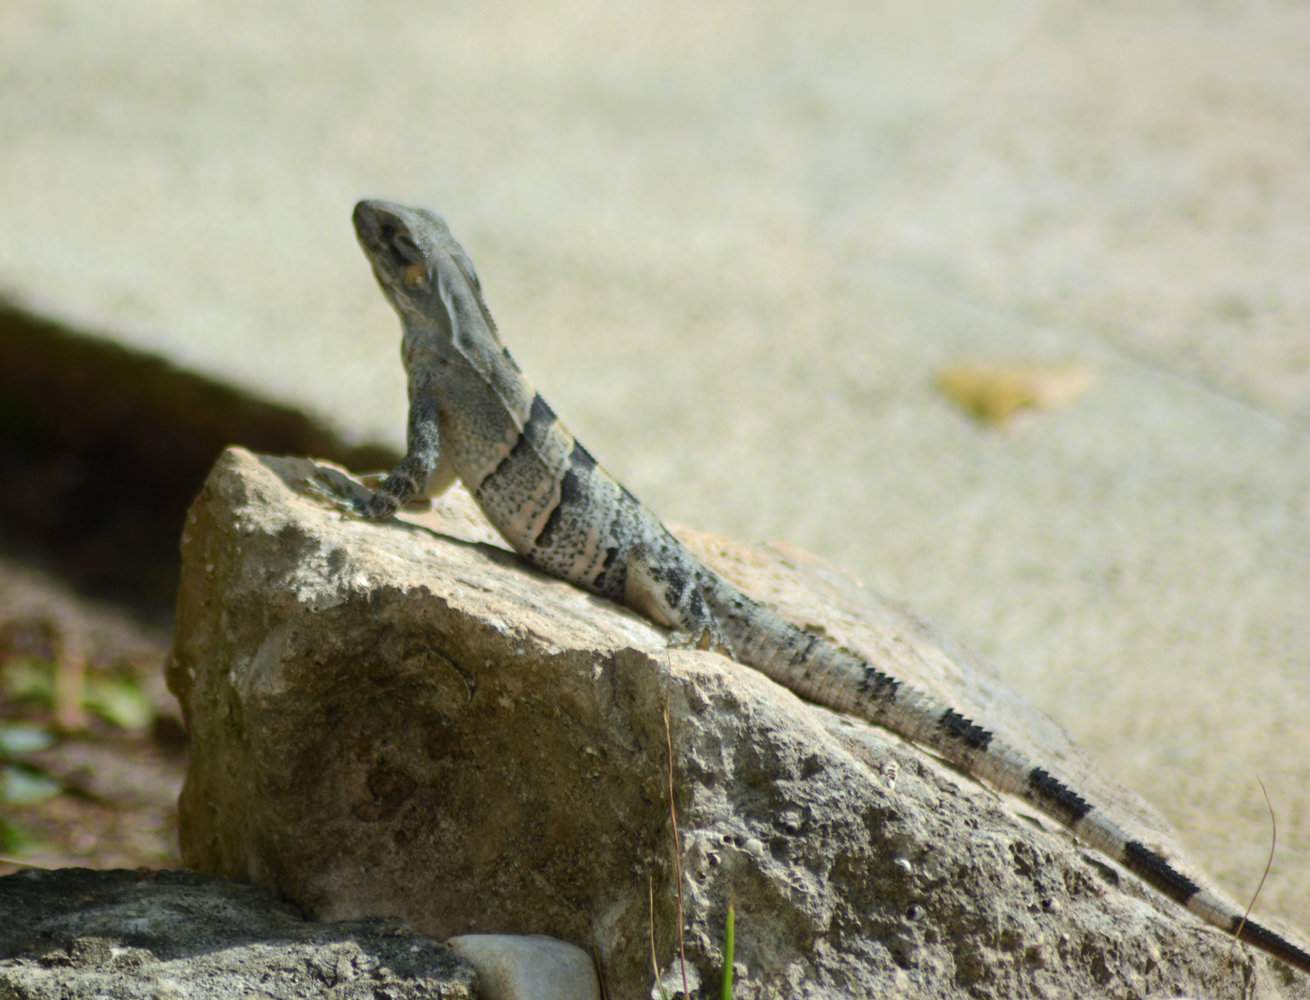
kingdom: Animalia
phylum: Chordata
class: Squamata
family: Iguanidae
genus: Ctenosaura
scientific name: Ctenosaura similis
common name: Black spiny-tailed iguana
